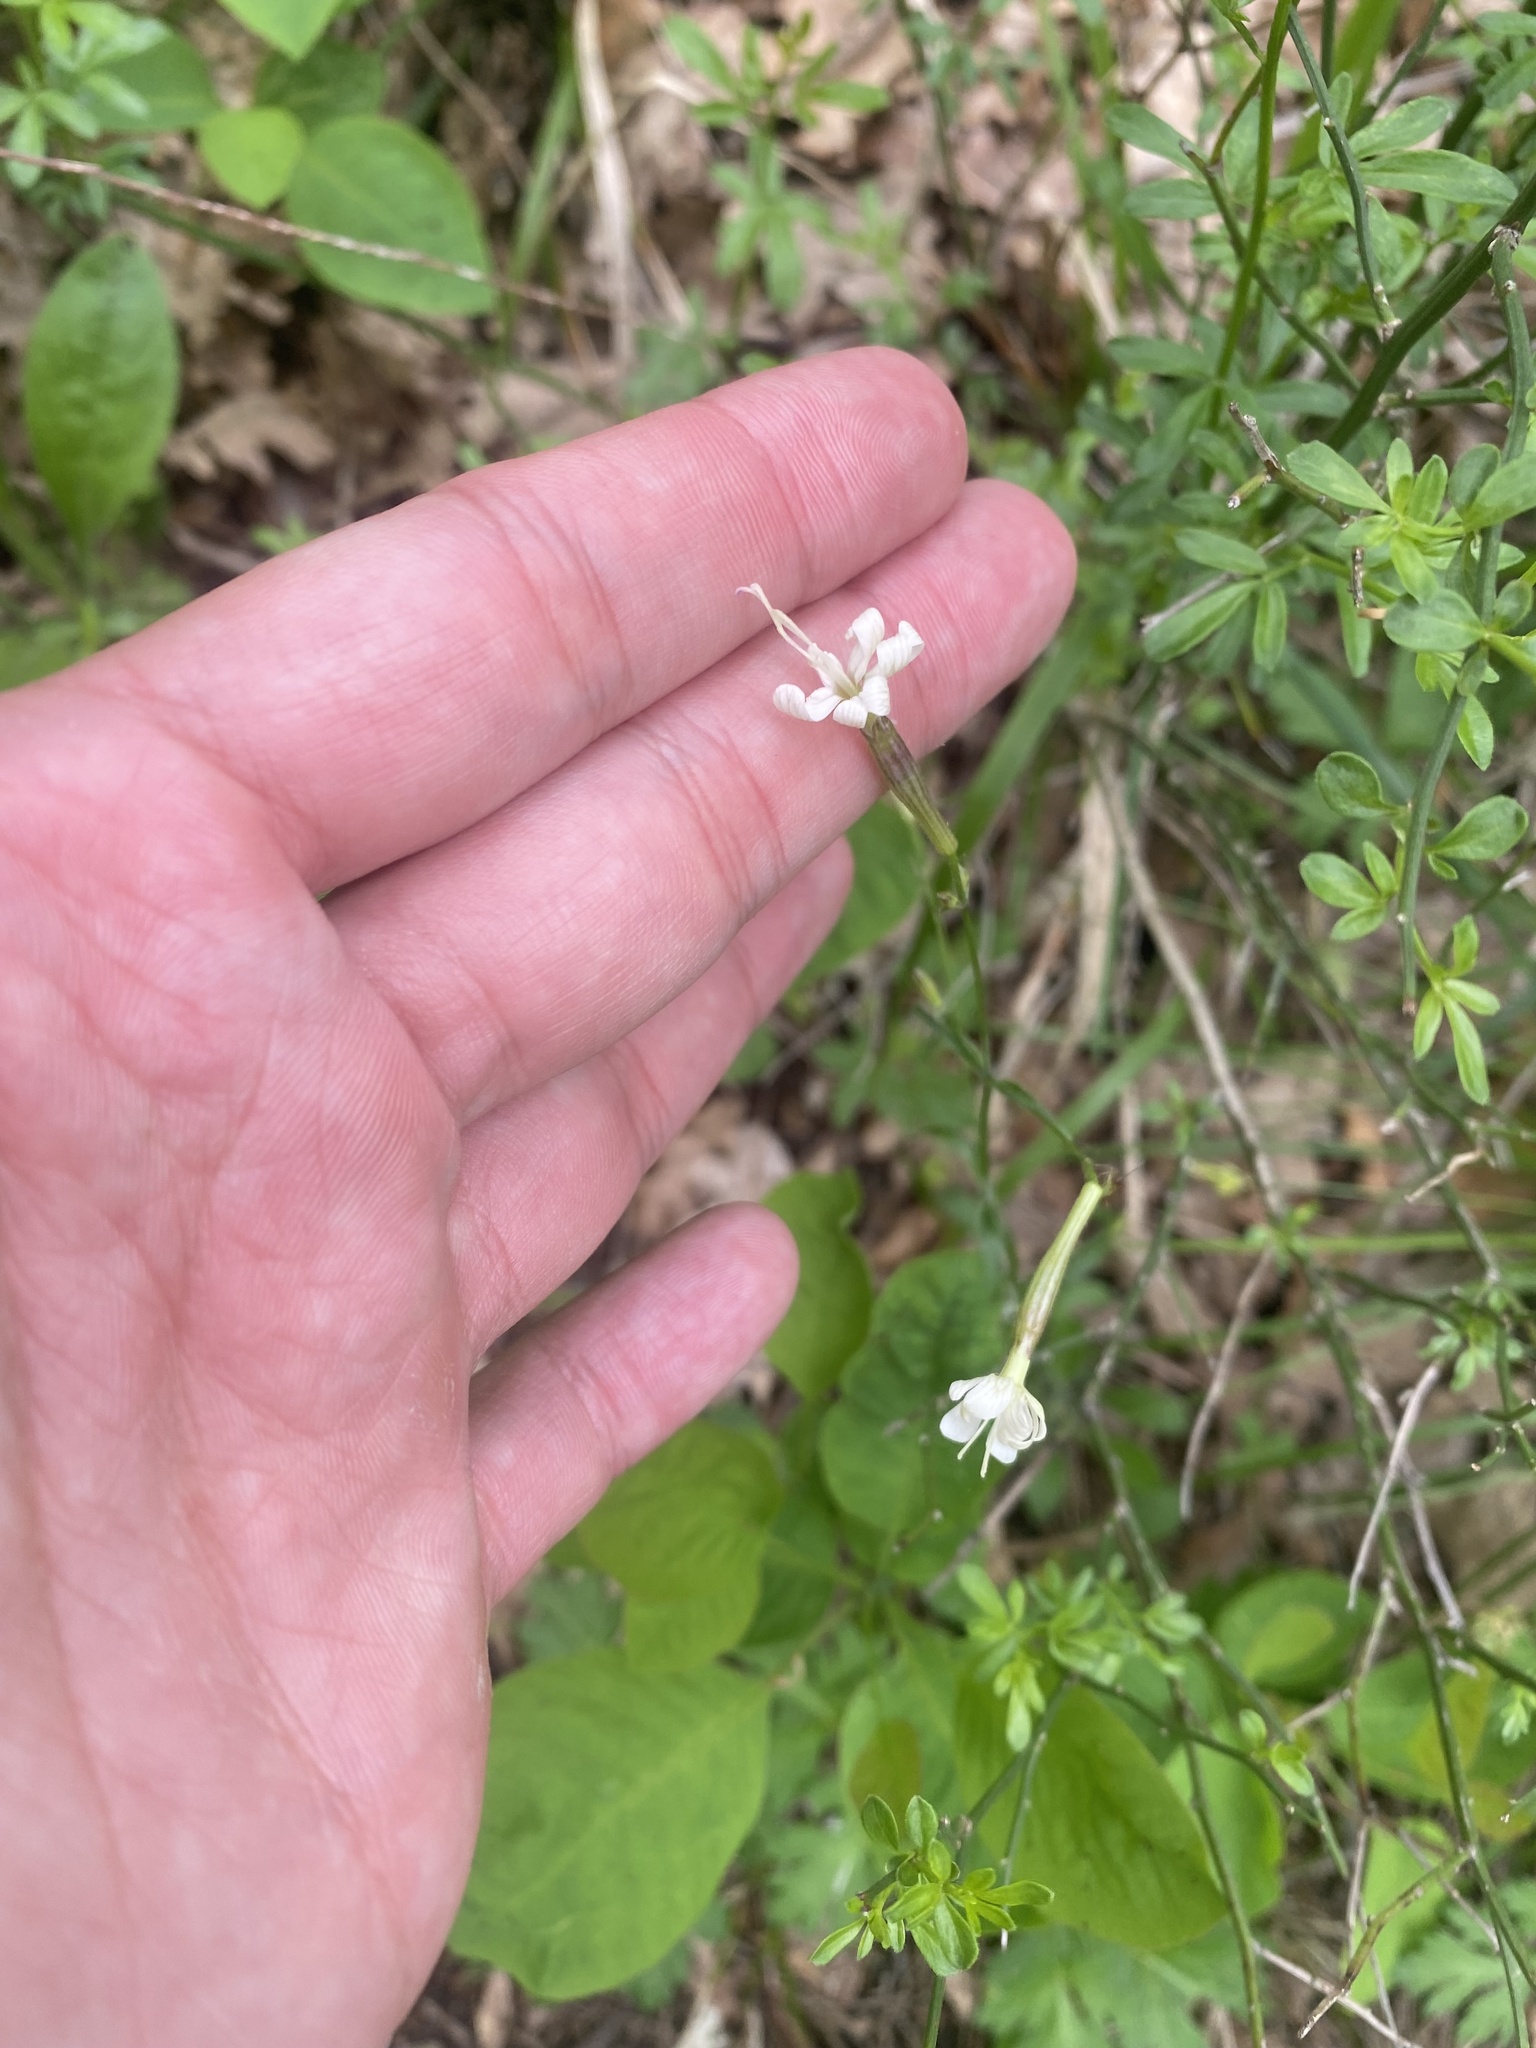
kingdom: Plantae
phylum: Tracheophyta
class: Magnoliopsida
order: Caryophyllales
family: Caryophyllaceae
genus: Silene
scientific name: Silene italica
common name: Italian catchfly
